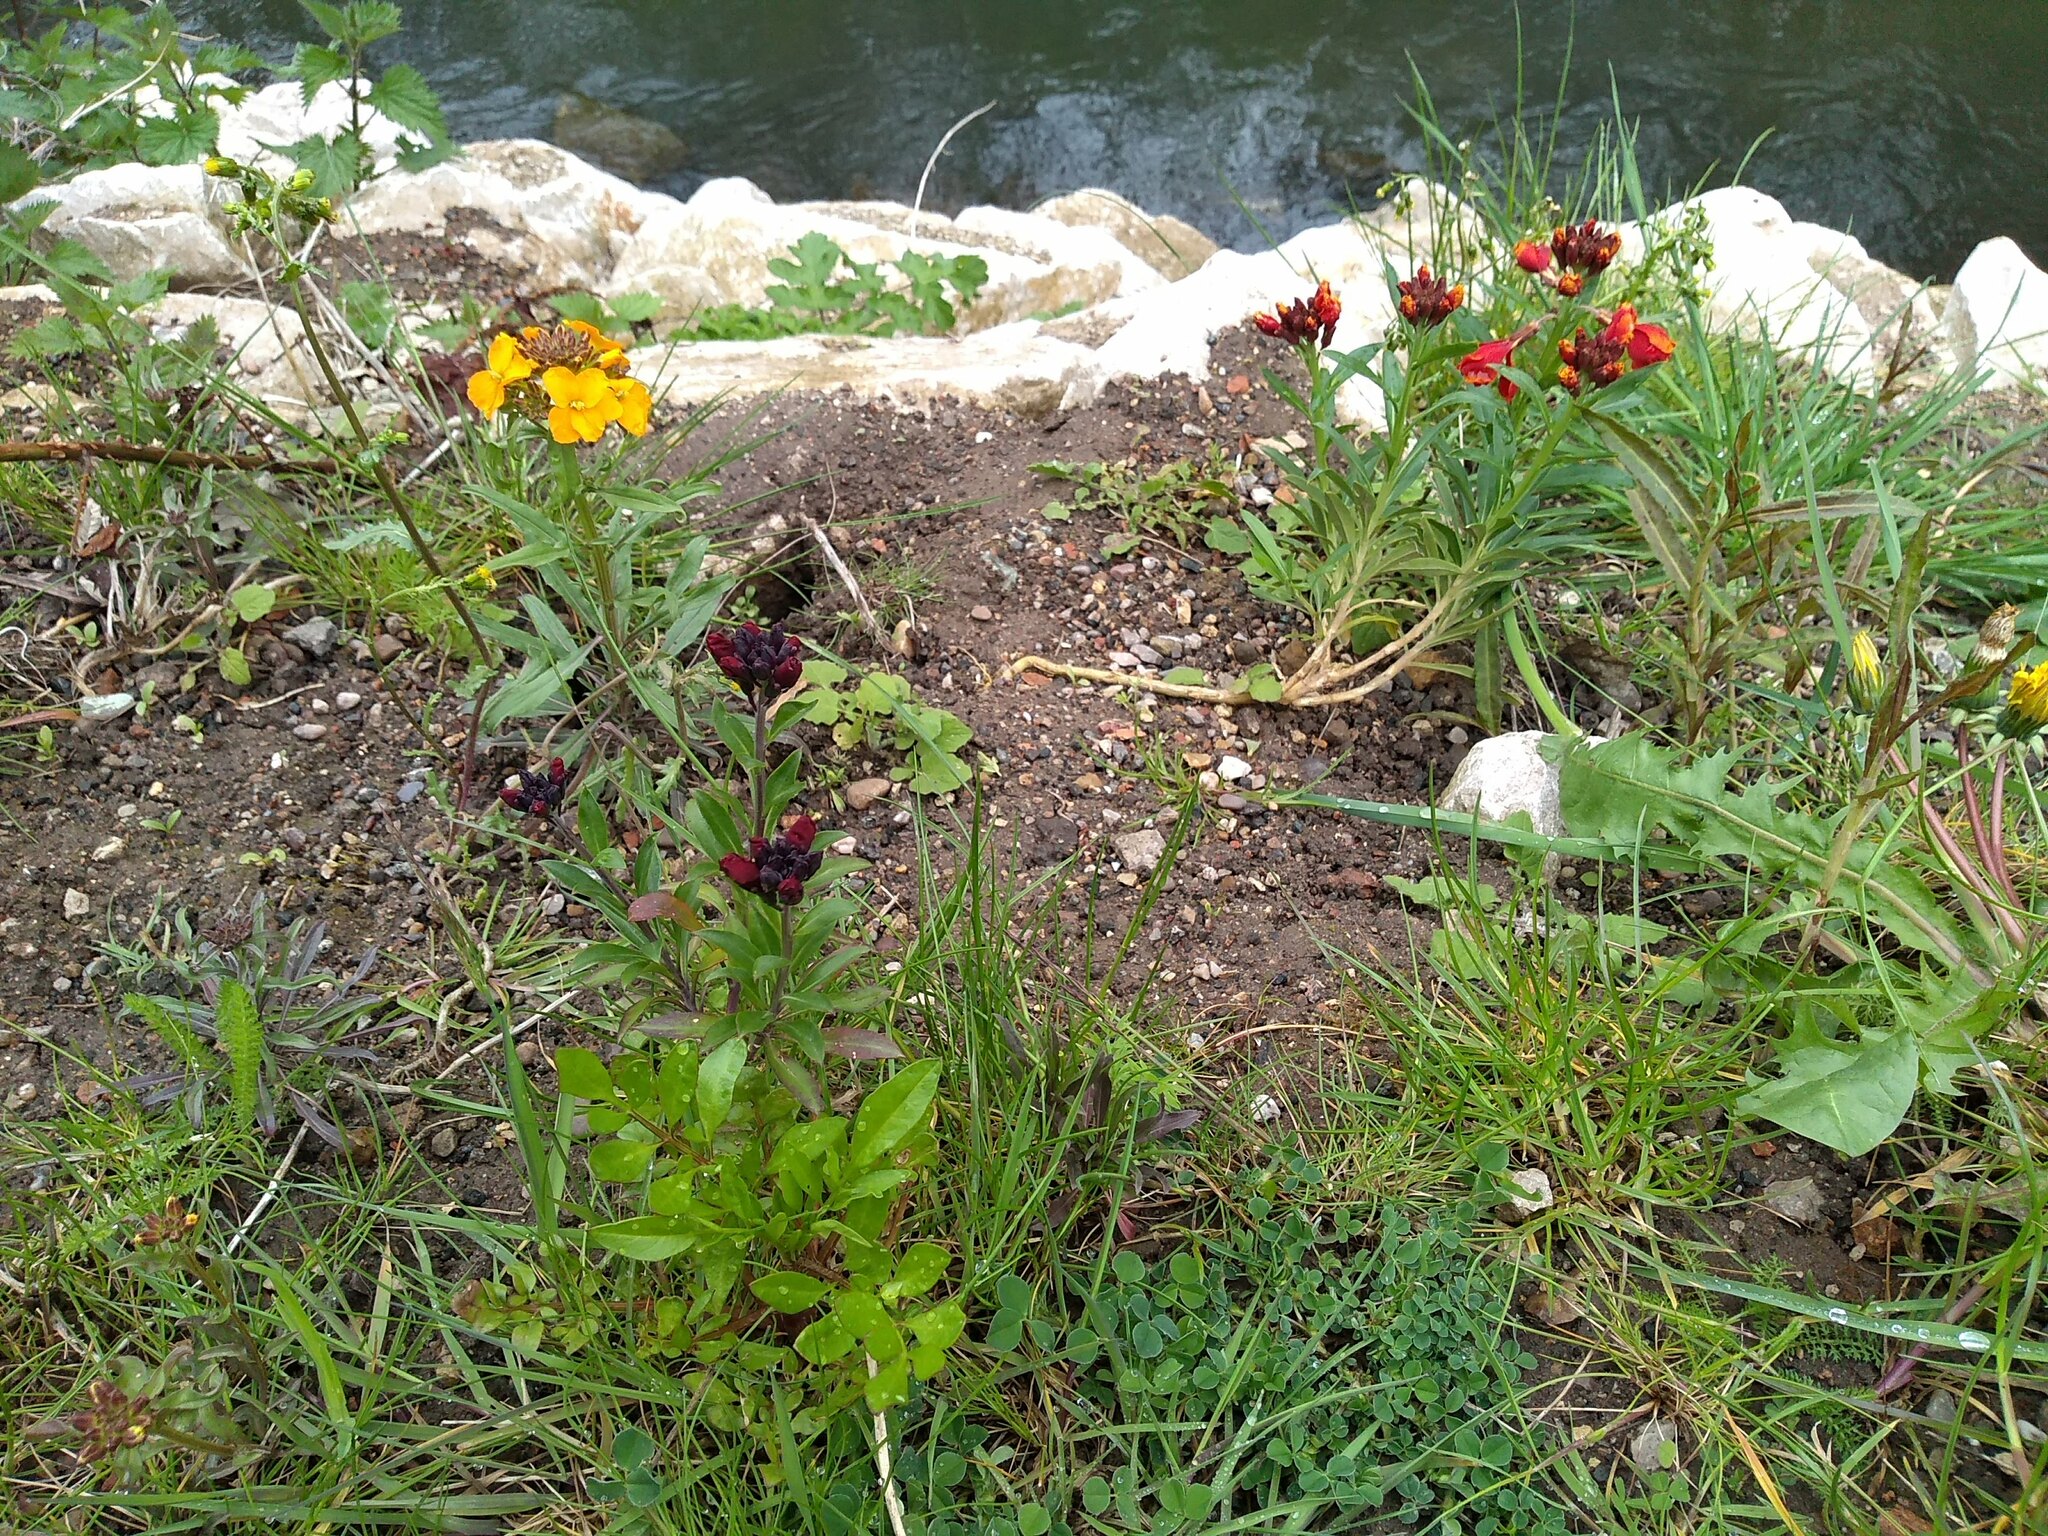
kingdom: Plantae
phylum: Tracheophyta
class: Magnoliopsida
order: Brassicales
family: Brassicaceae
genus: Erysimum
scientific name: Erysimum cheiri
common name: Wallflower
